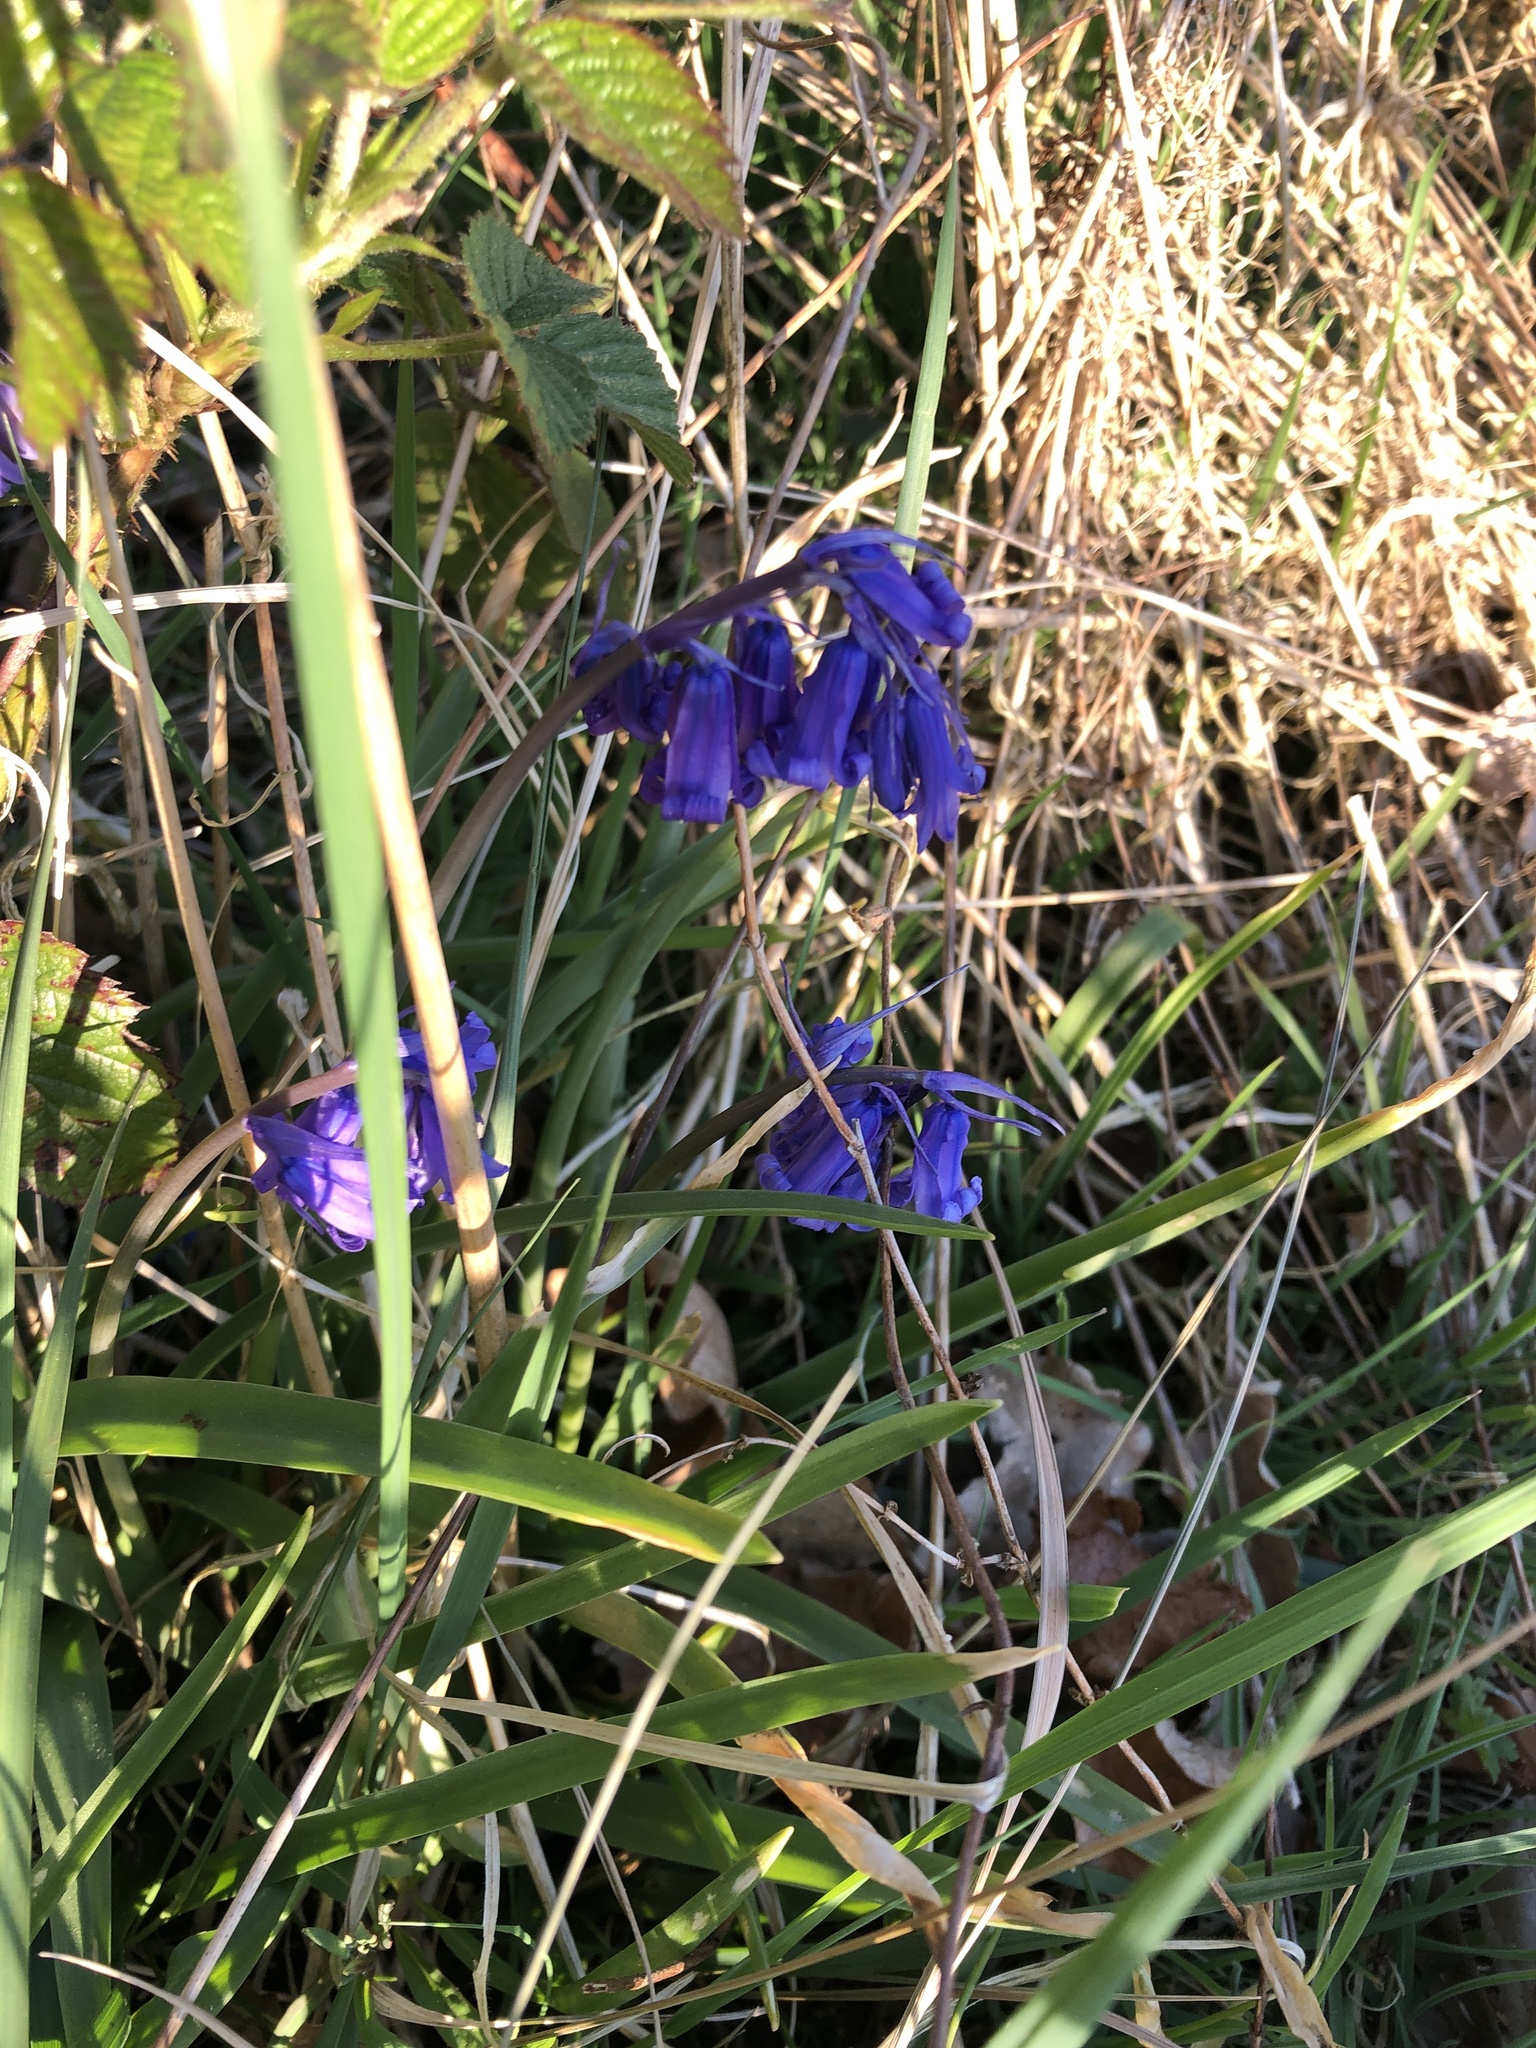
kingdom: Plantae
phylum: Tracheophyta
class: Liliopsida
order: Asparagales
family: Asparagaceae
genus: Hyacinthoides
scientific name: Hyacinthoides non-scripta
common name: Bluebell
